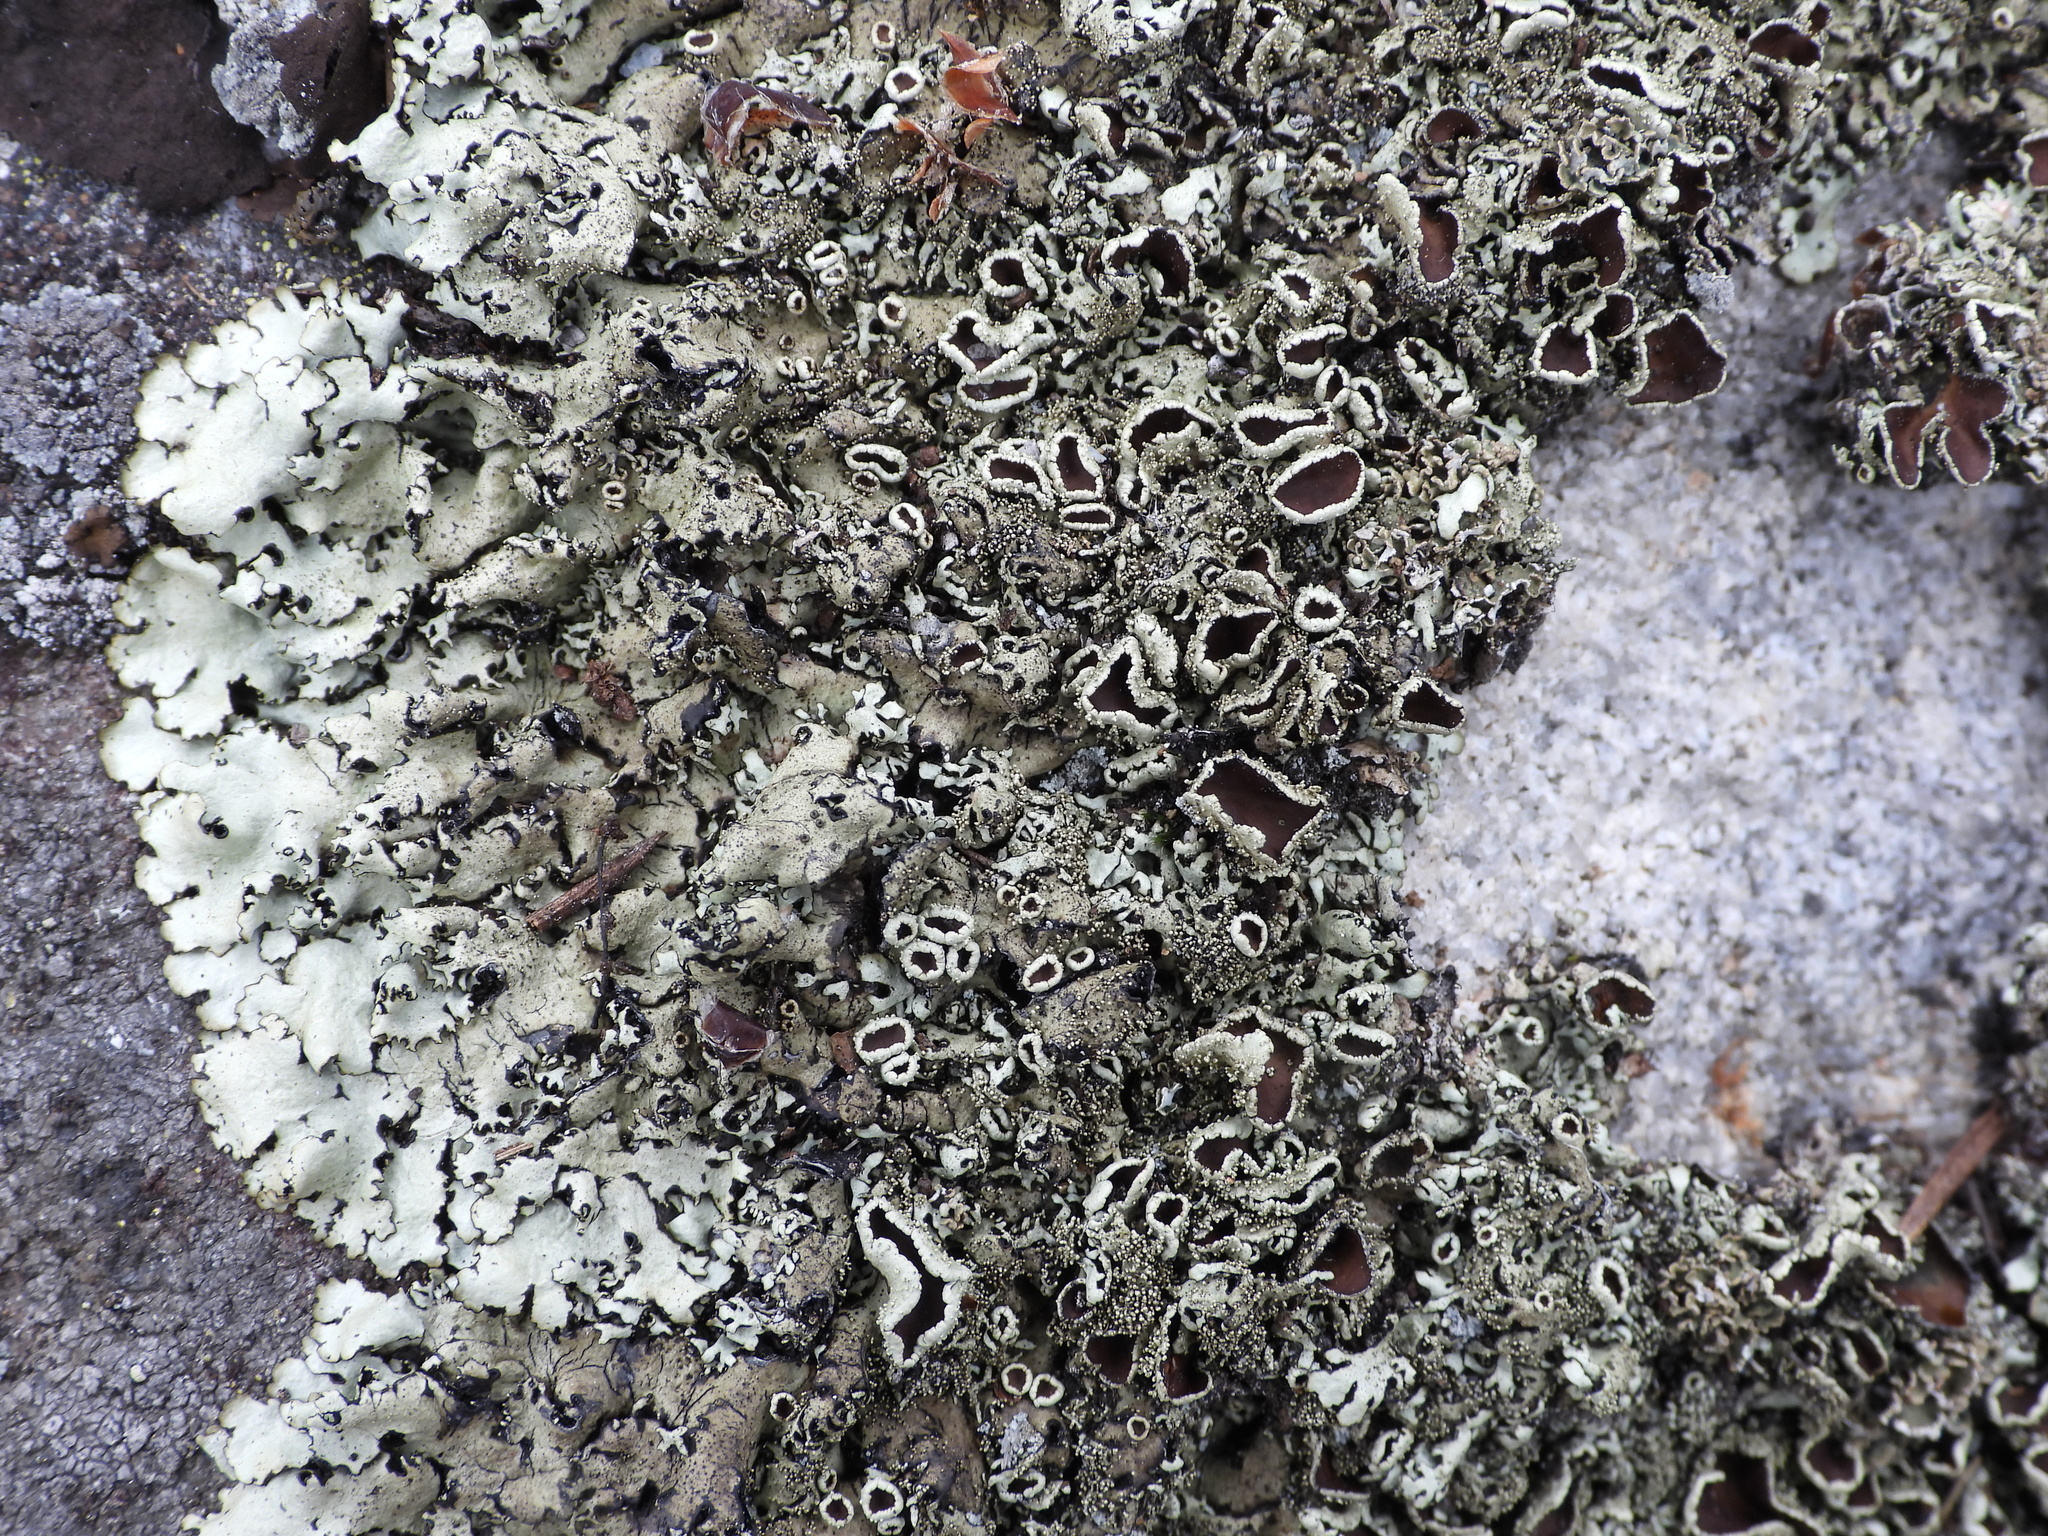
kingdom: Fungi
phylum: Ascomycota
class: Lecanoromycetes
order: Lecanorales
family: Parmeliaceae
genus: Xanthoparmelia
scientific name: Xanthoparmelia conspersa
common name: Peppered rock shield
